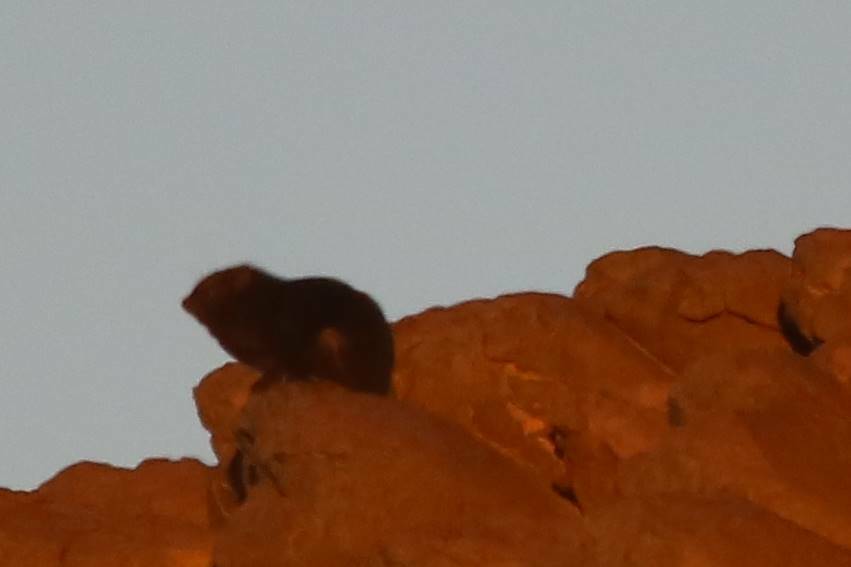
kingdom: Animalia
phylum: Chordata
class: Mammalia
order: Hyracoidea
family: Procaviidae
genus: Procavia
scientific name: Procavia capensis
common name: Rock hyrax
